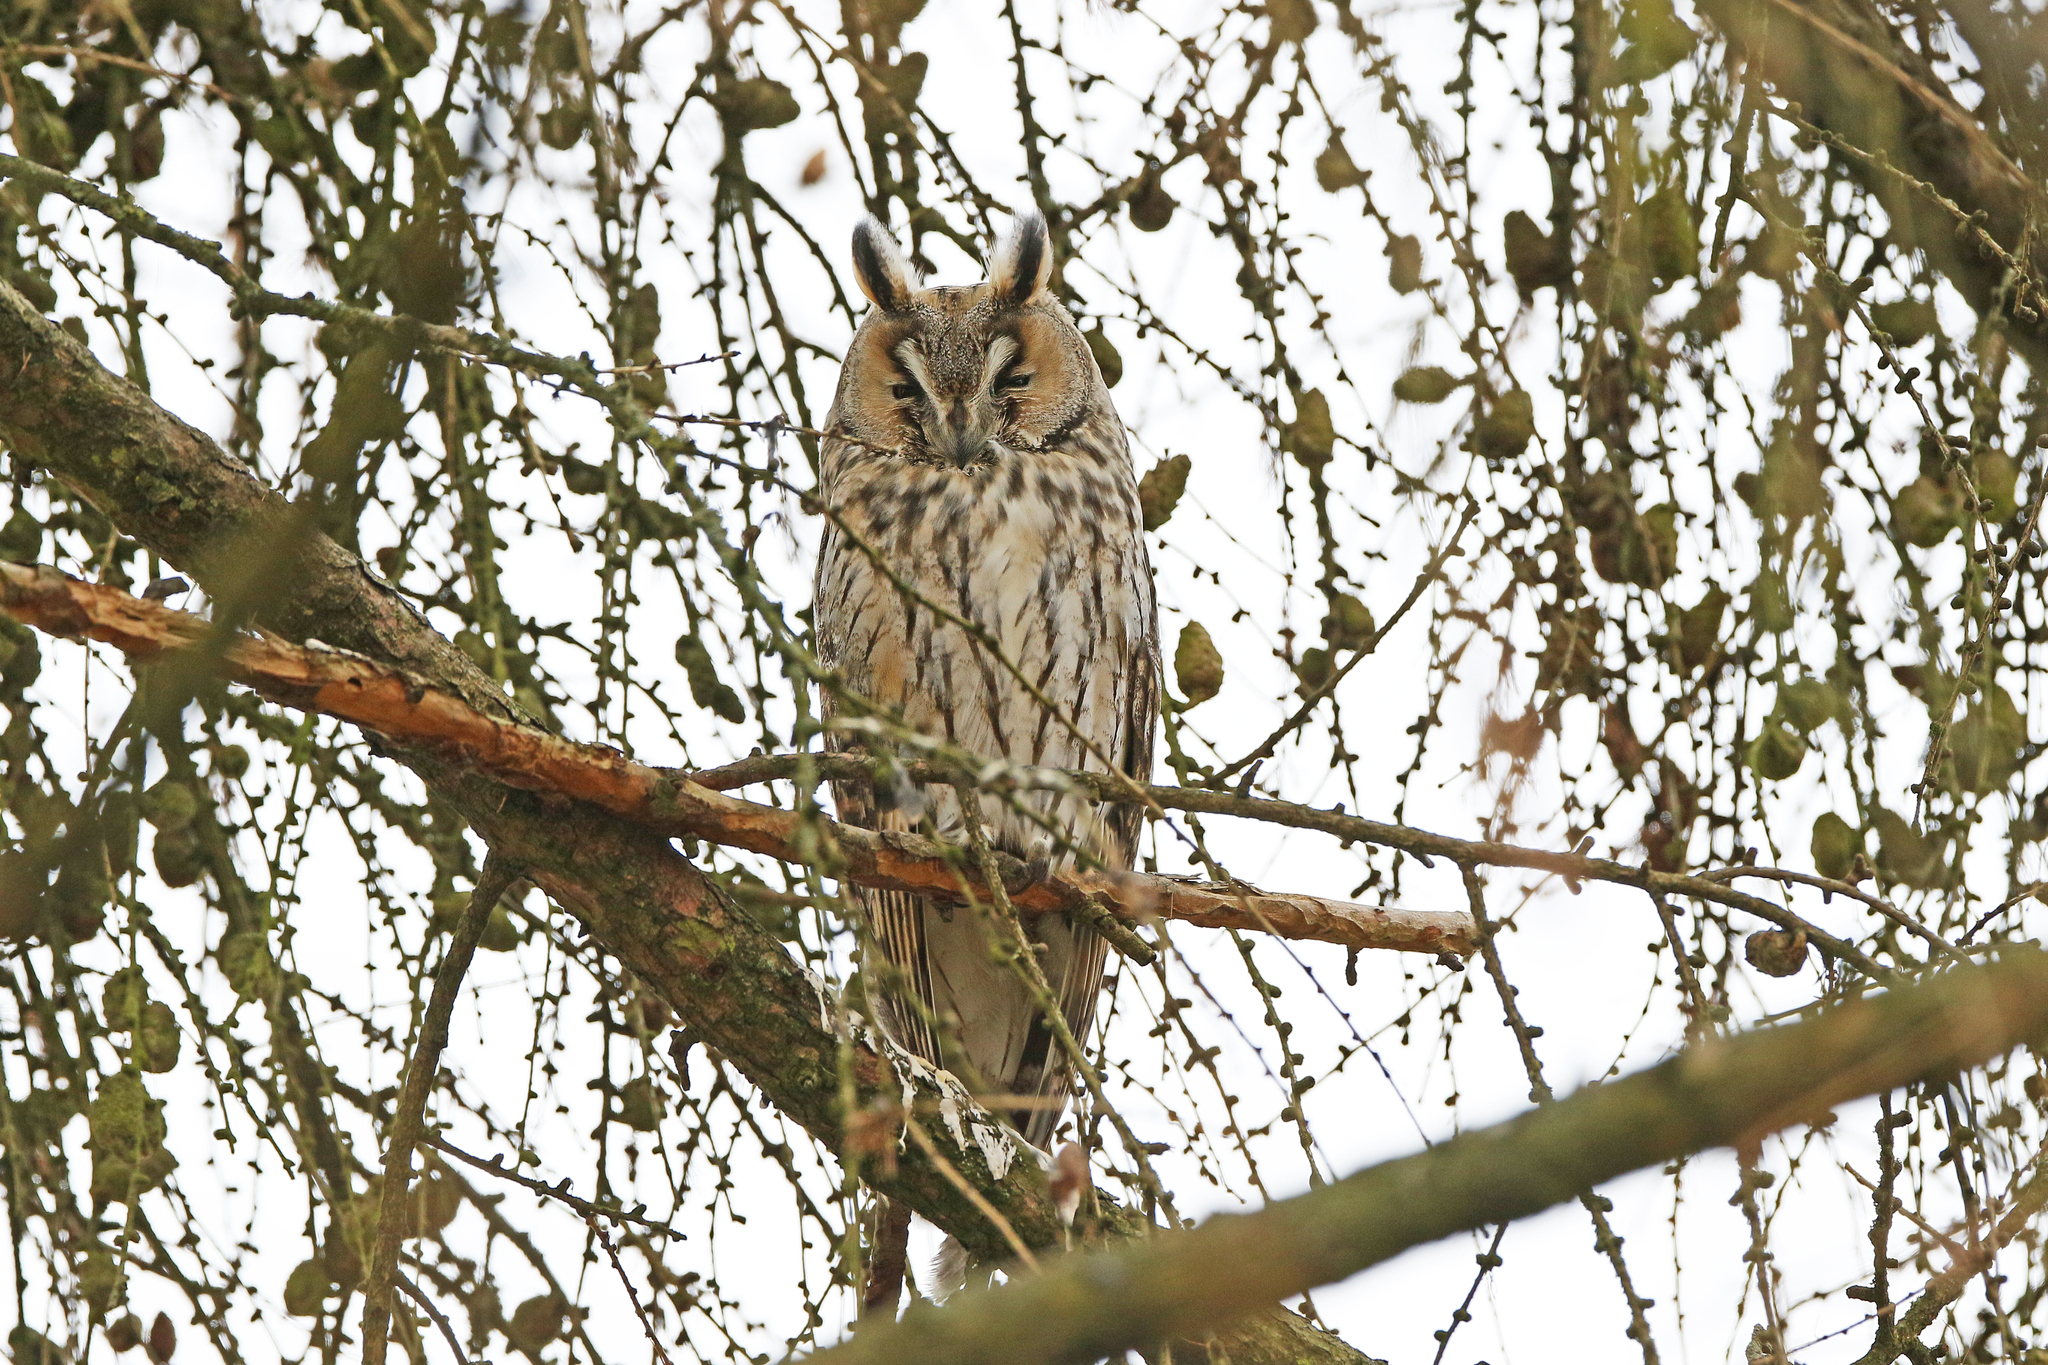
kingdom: Animalia
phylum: Chordata
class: Aves
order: Strigiformes
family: Strigidae
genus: Asio
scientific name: Asio otus
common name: Long-eared owl
